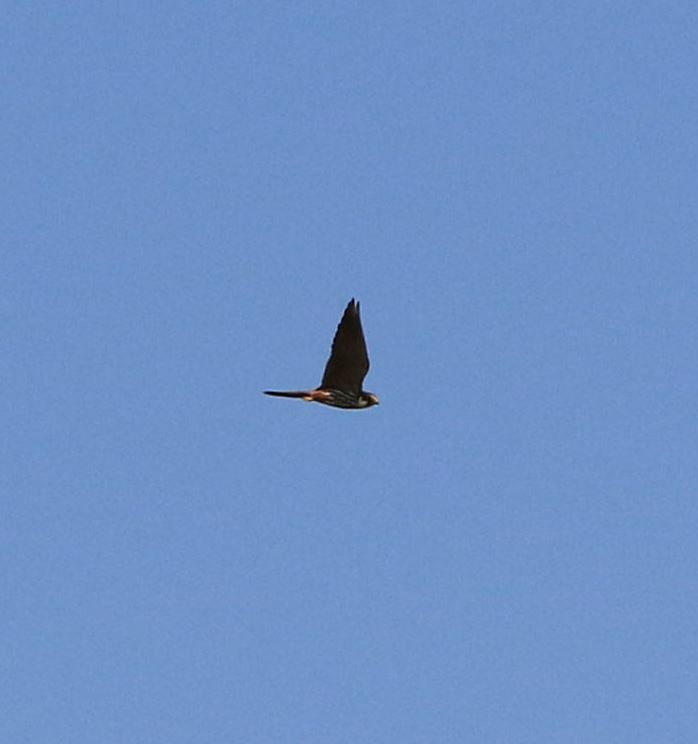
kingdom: Animalia
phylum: Chordata
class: Aves
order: Falconiformes
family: Falconidae
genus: Falco
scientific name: Falco subbuteo
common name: Eurasian hobby
